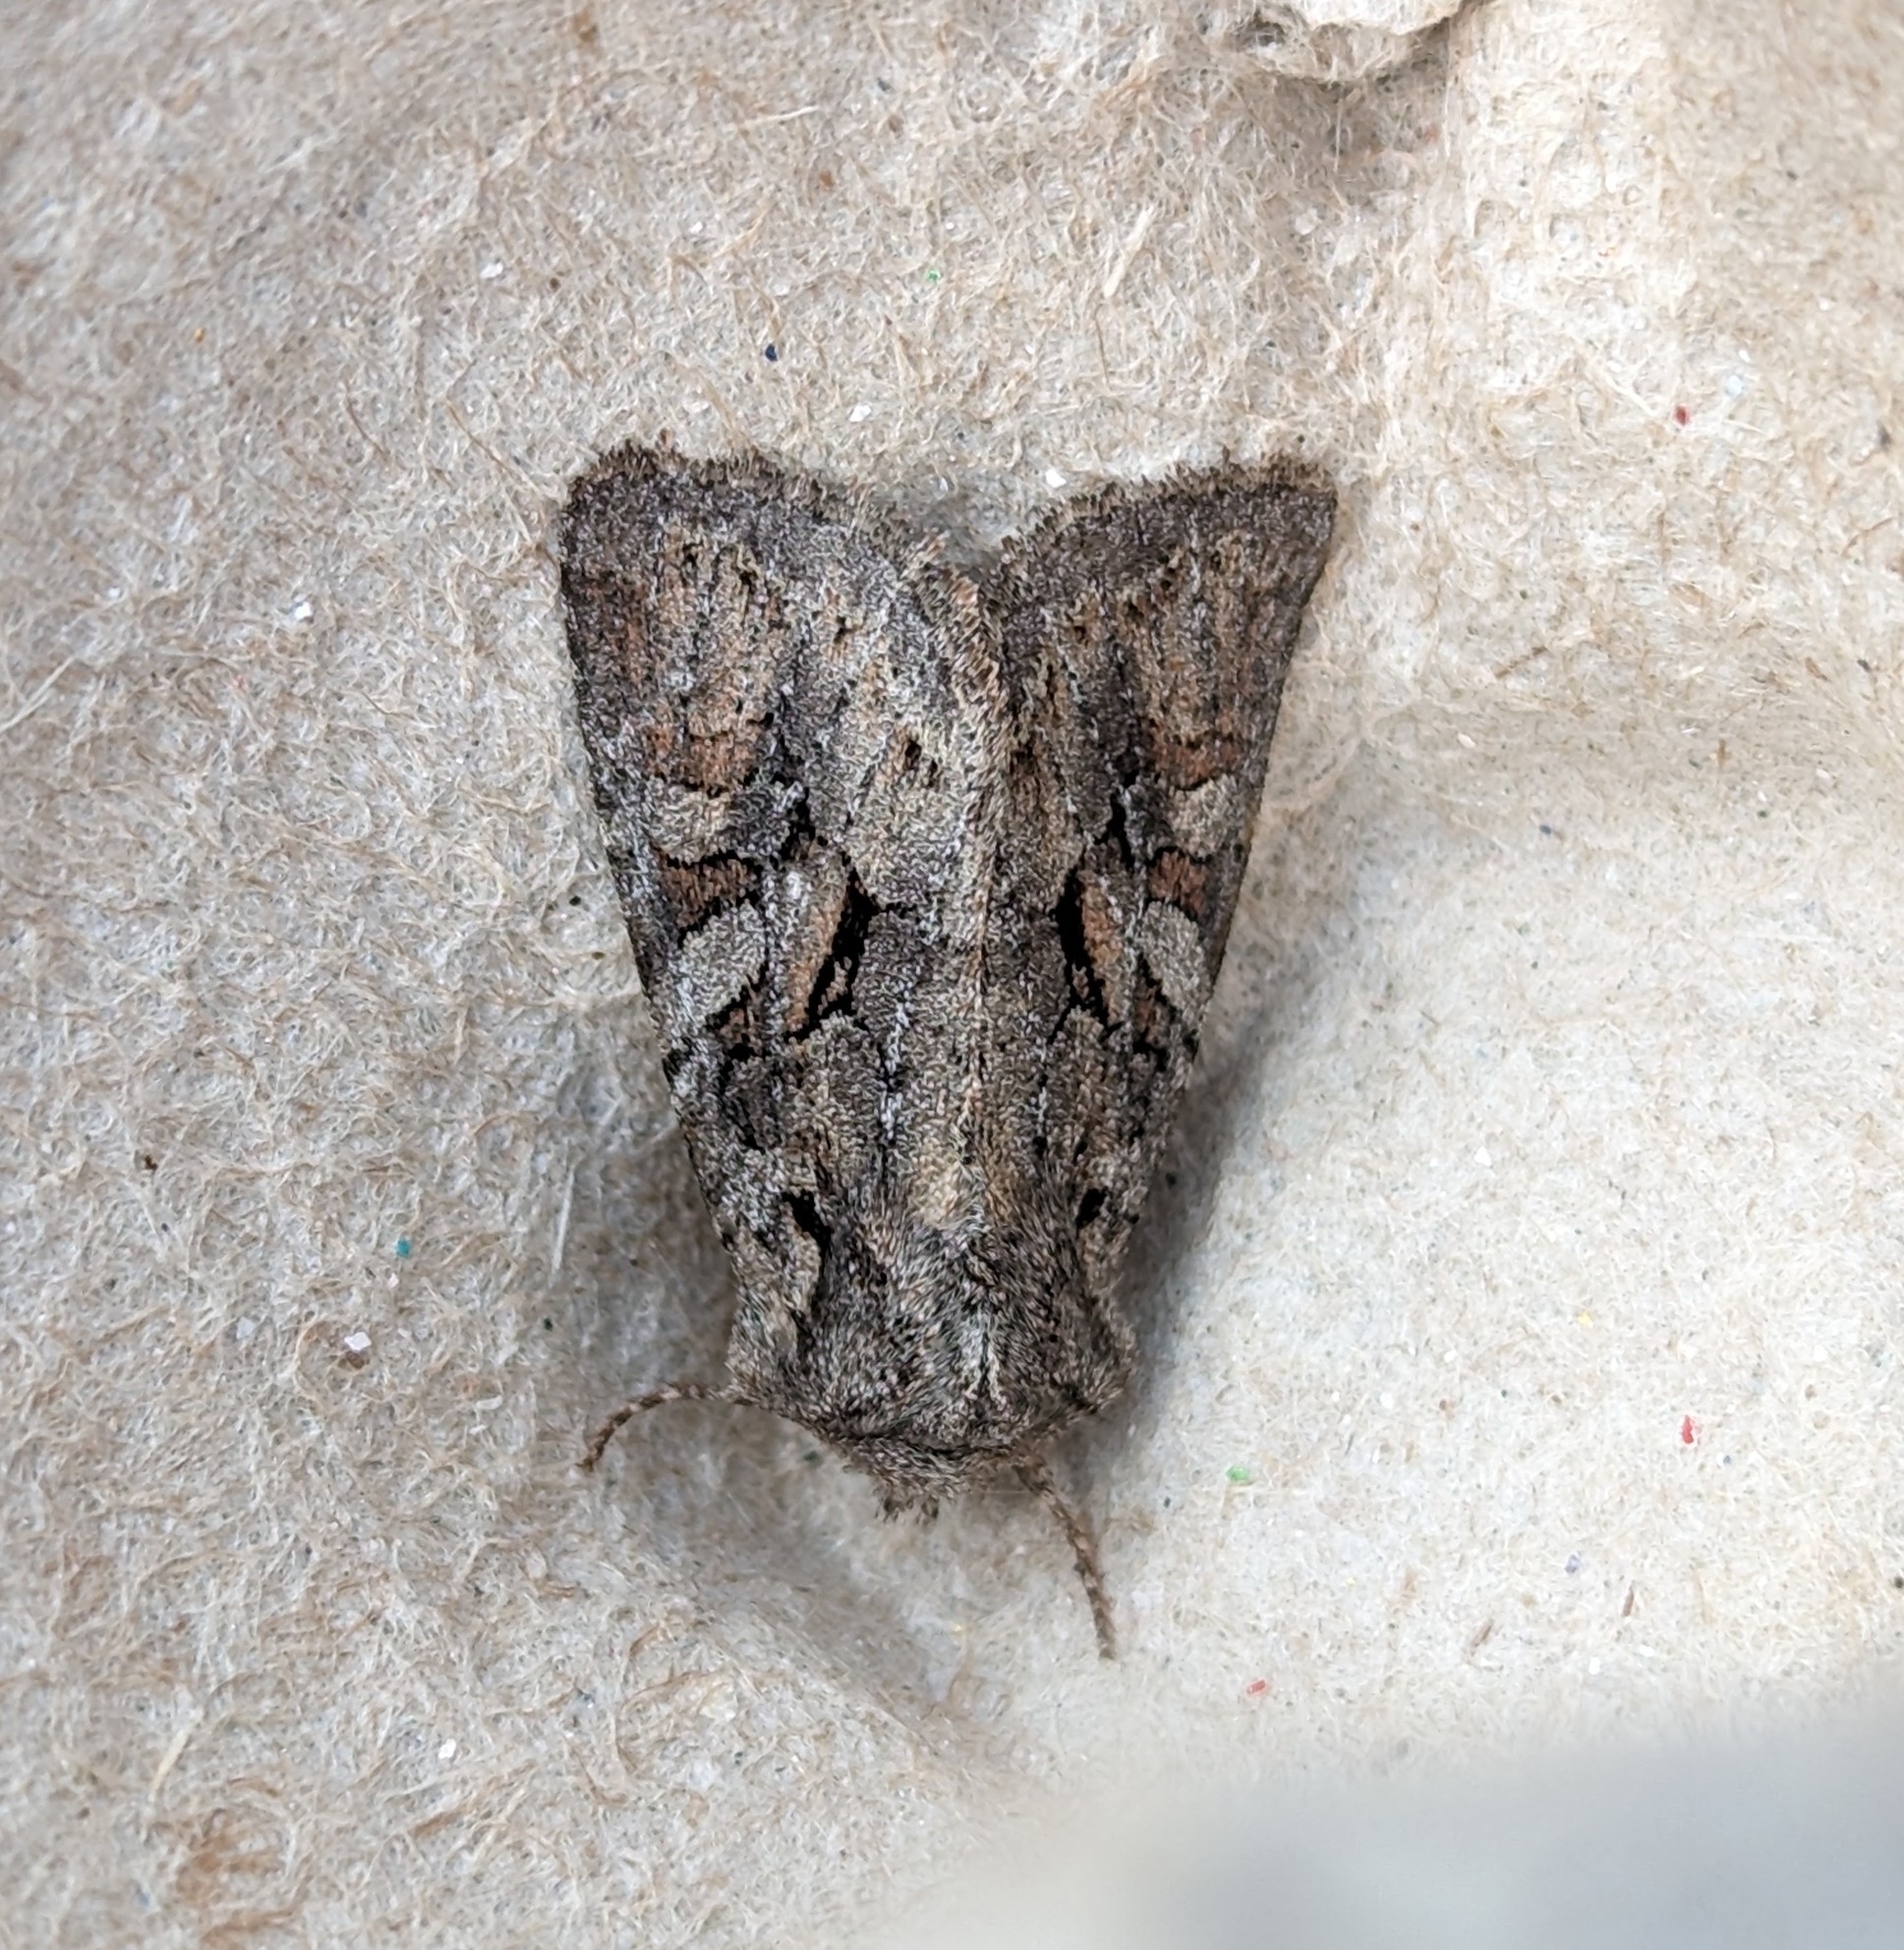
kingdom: Animalia
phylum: Arthropoda
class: Insecta
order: Lepidoptera
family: Noctuidae
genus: Orthosia
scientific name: Orthosia segregata
